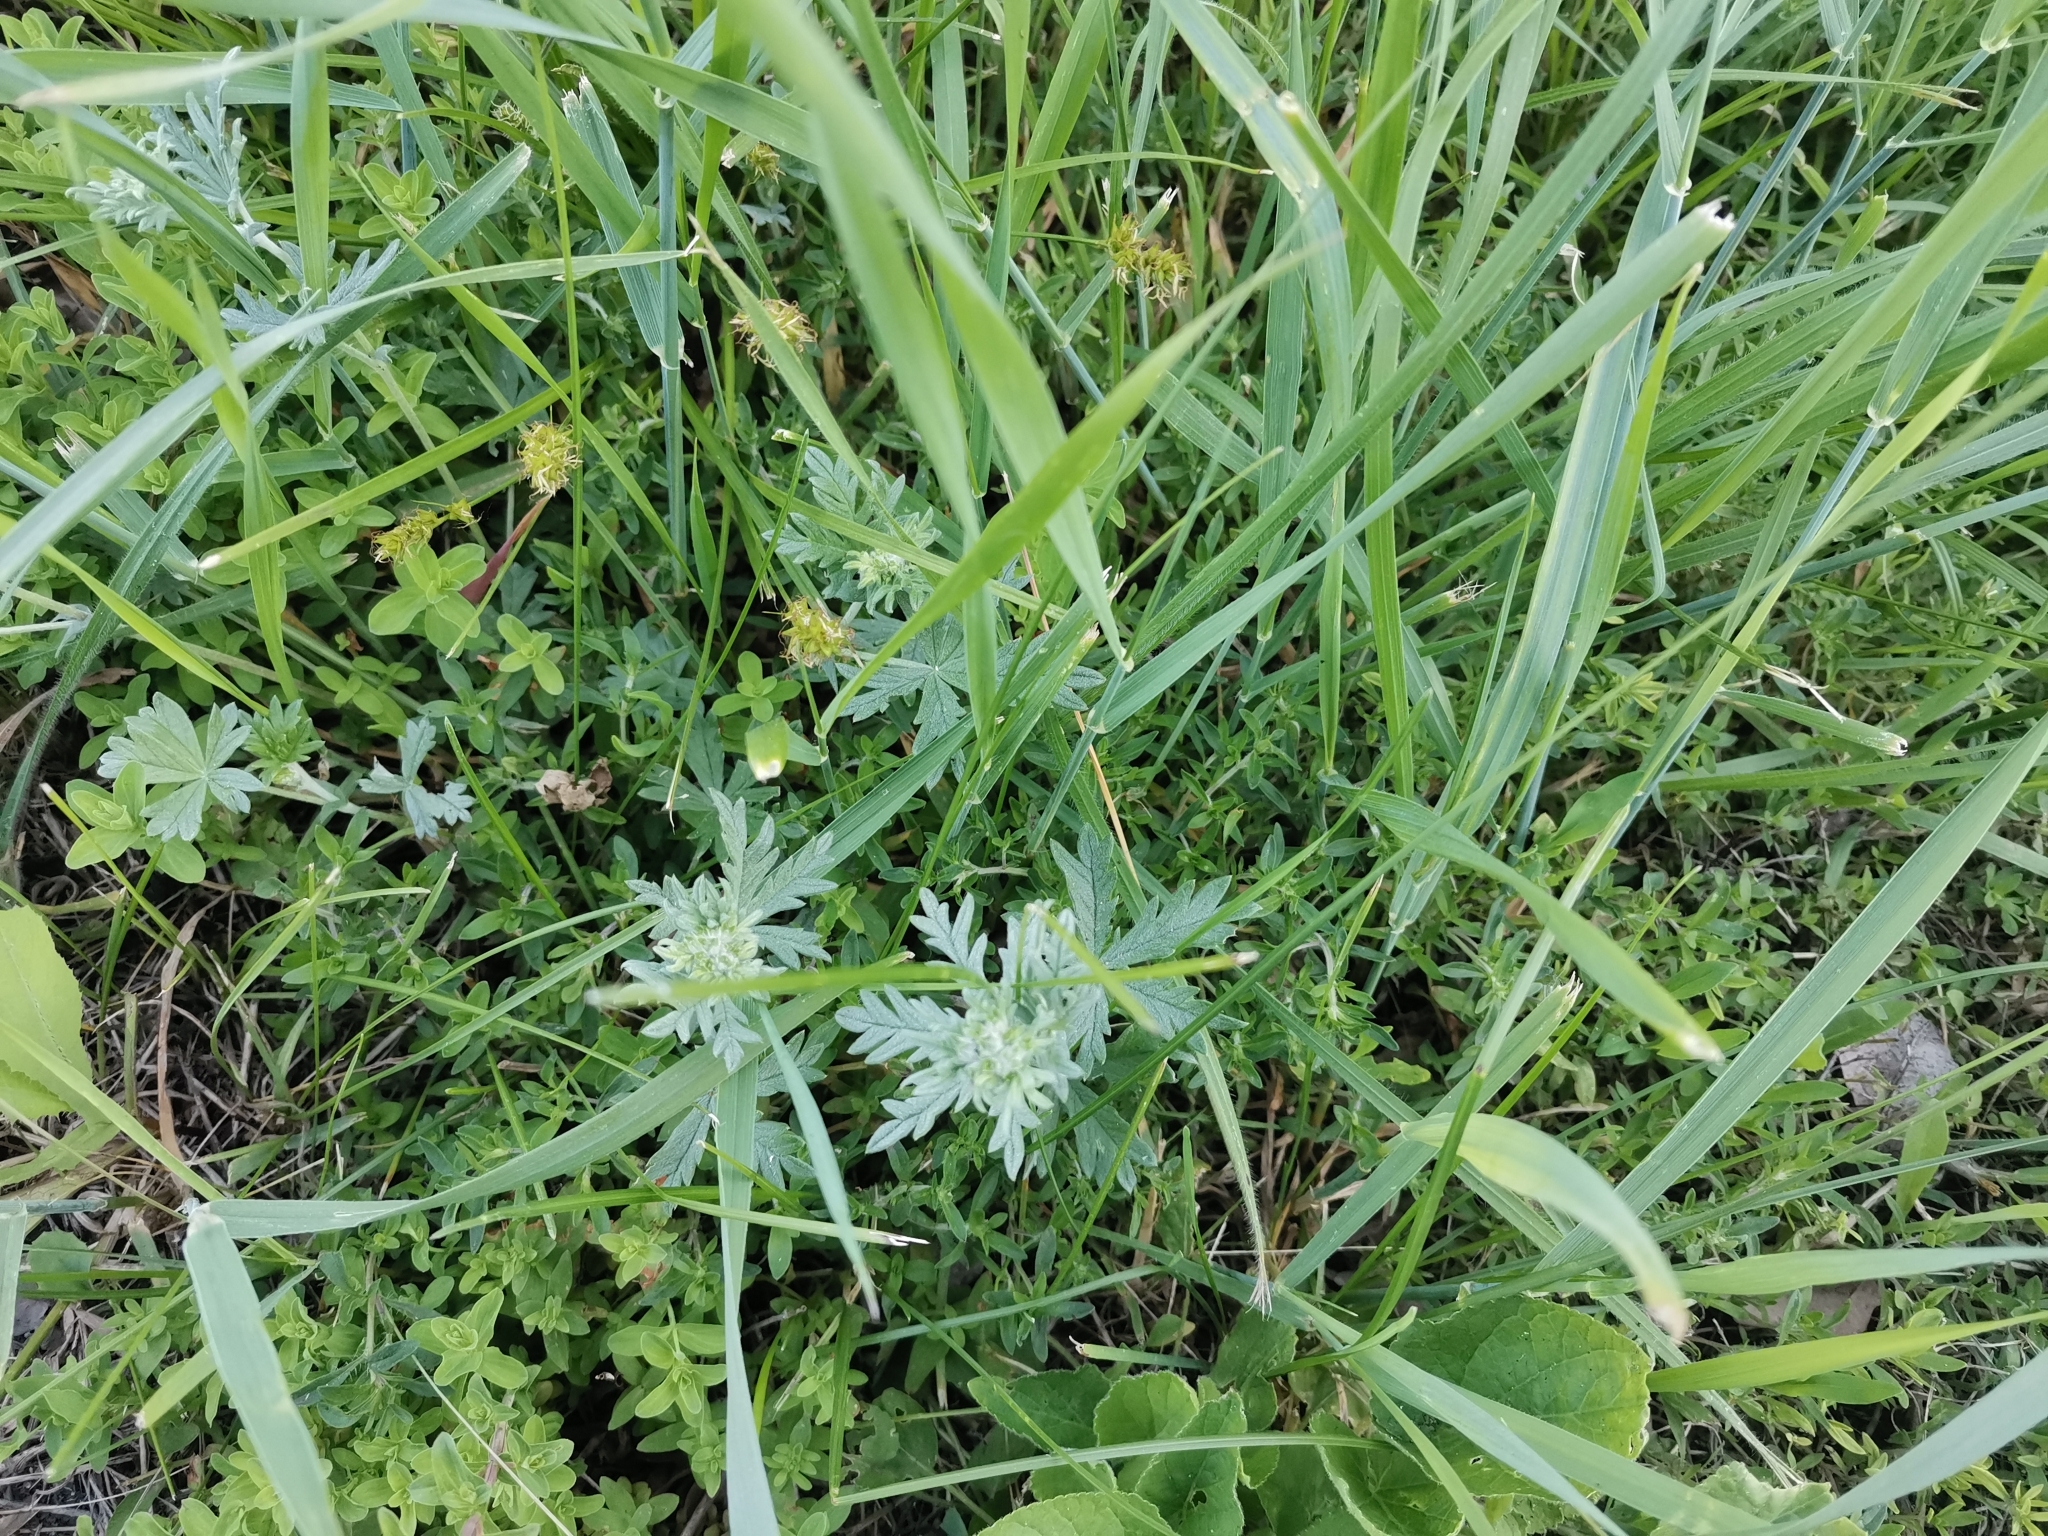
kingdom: Plantae
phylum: Tracheophyta
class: Magnoliopsida
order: Rosales
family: Rosaceae
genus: Potentilla
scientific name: Potentilla argentea
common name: Hoary cinquefoil
